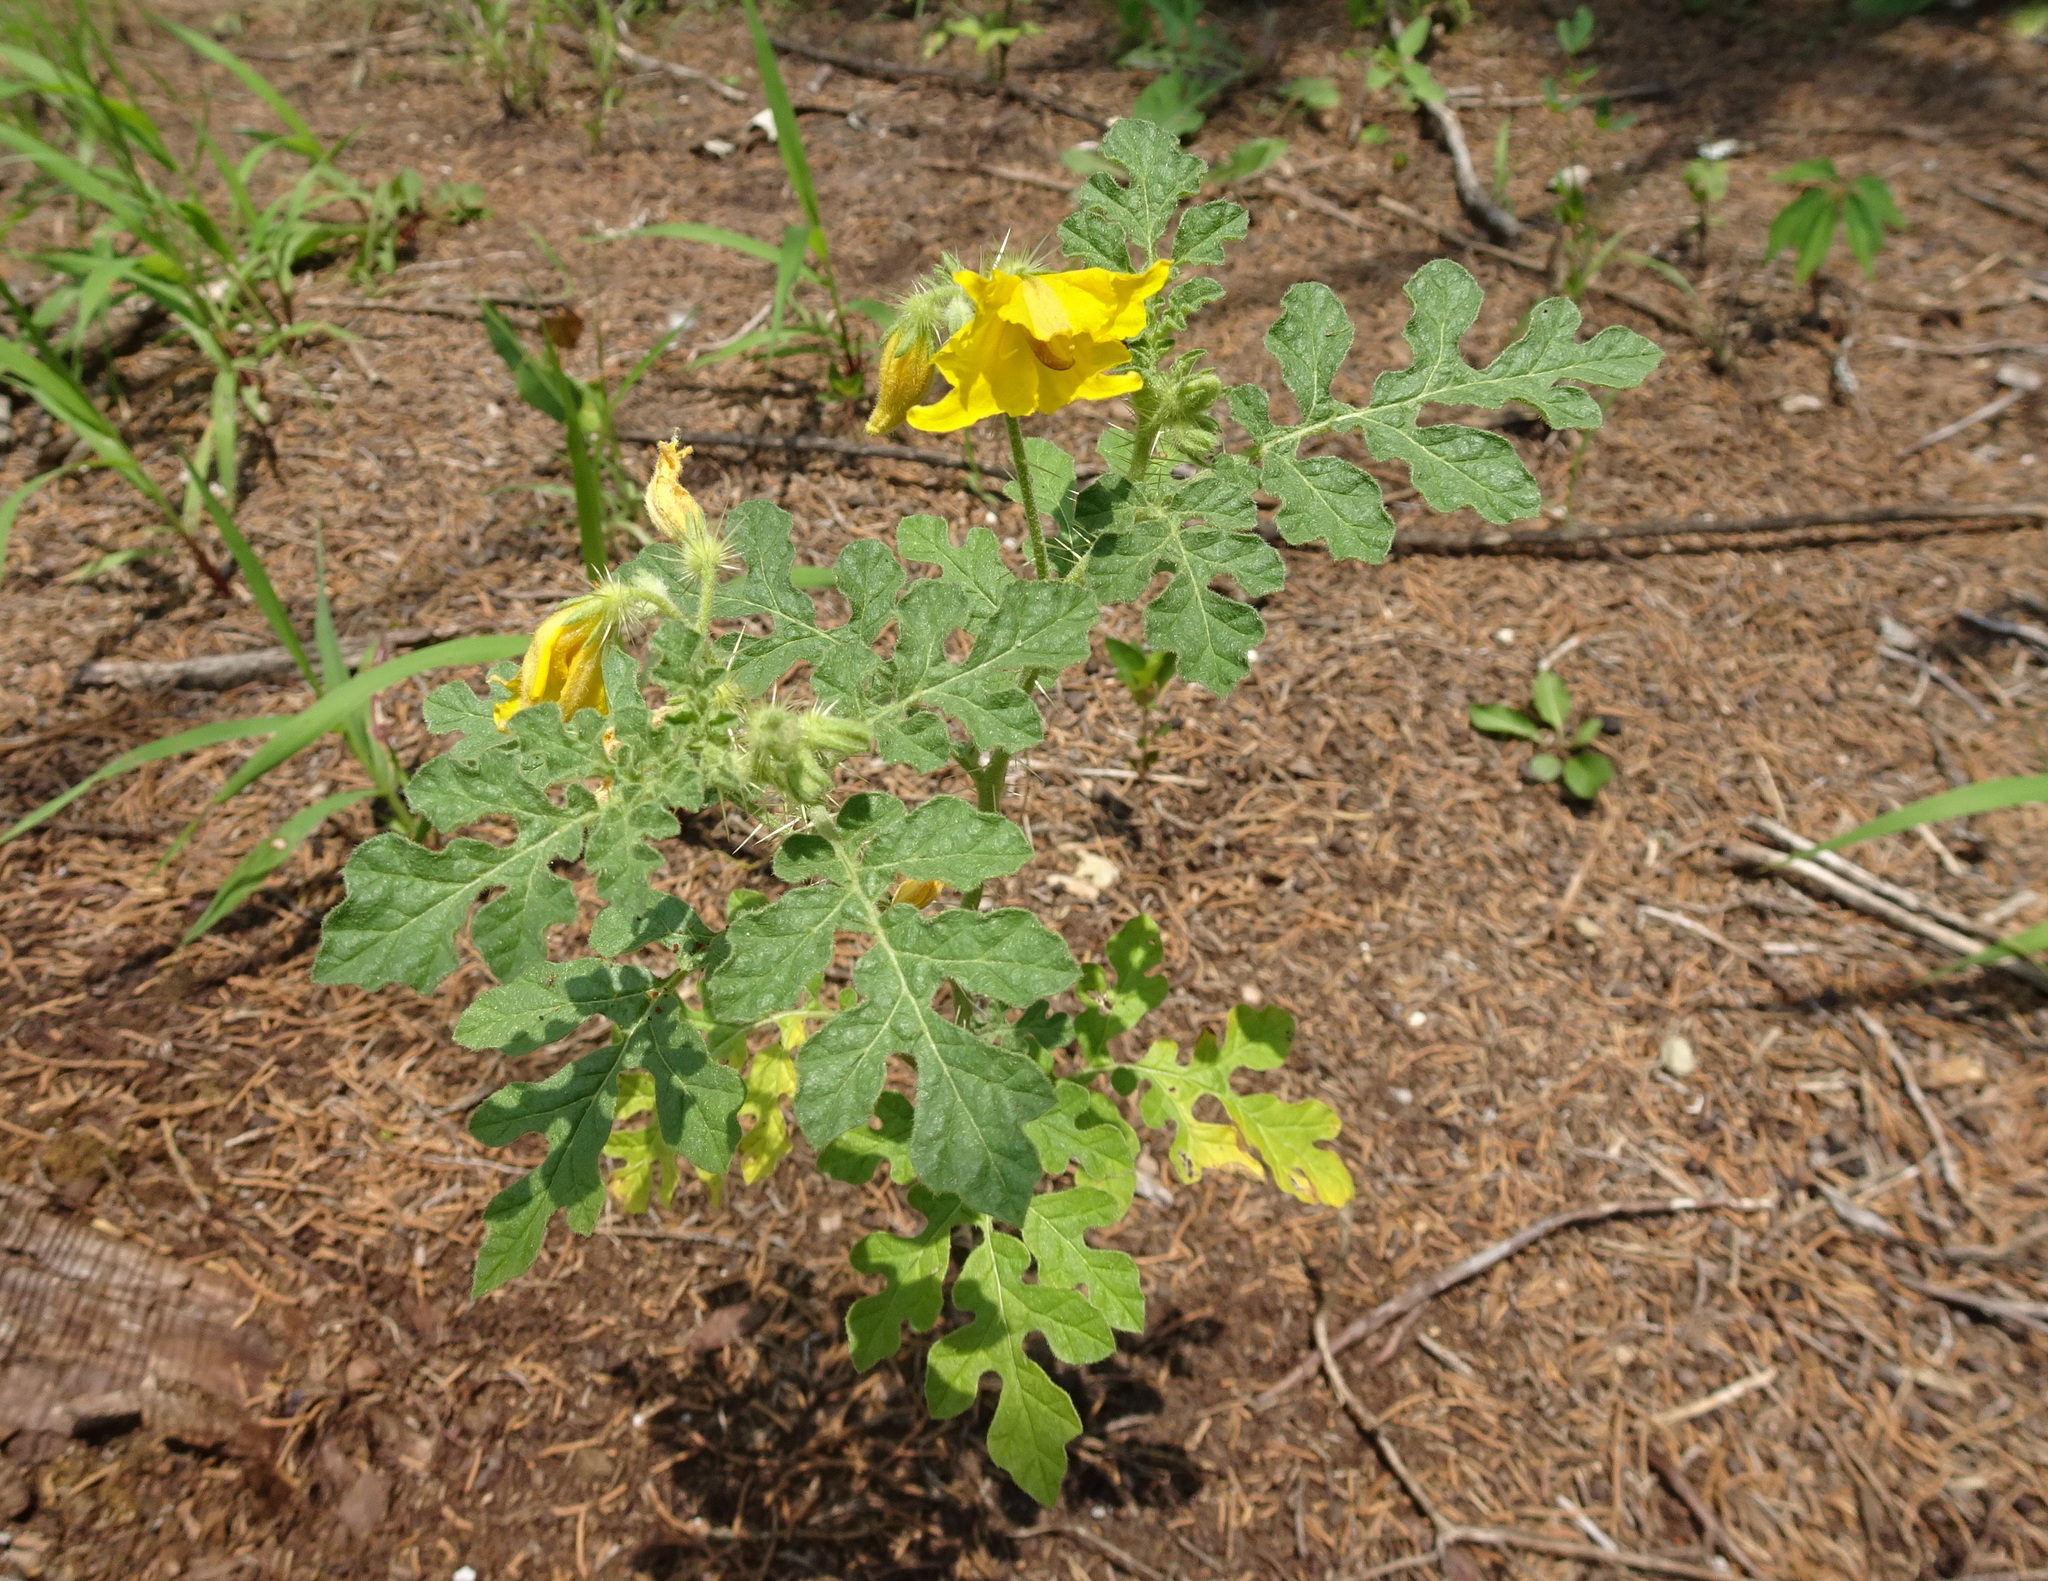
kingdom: Plantae
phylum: Tracheophyta
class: Magnoliopsida
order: Solanales
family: Solanaceae
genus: Solanum
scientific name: Solanum angustifolium
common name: Buffalobur nightshade
